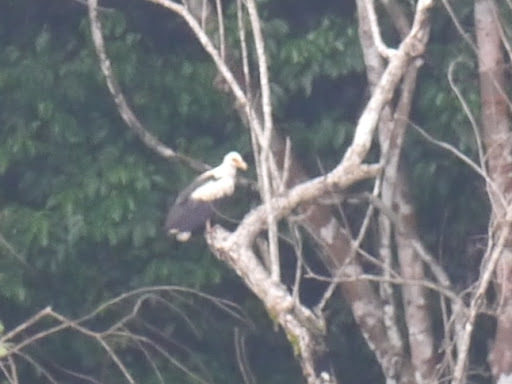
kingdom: Animalia
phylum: Chordata
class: Aves
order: Accipitriformes
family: Accipitridae
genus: Gypohierax
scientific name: Gypohierax angolensis
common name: Palm-nut vulture
